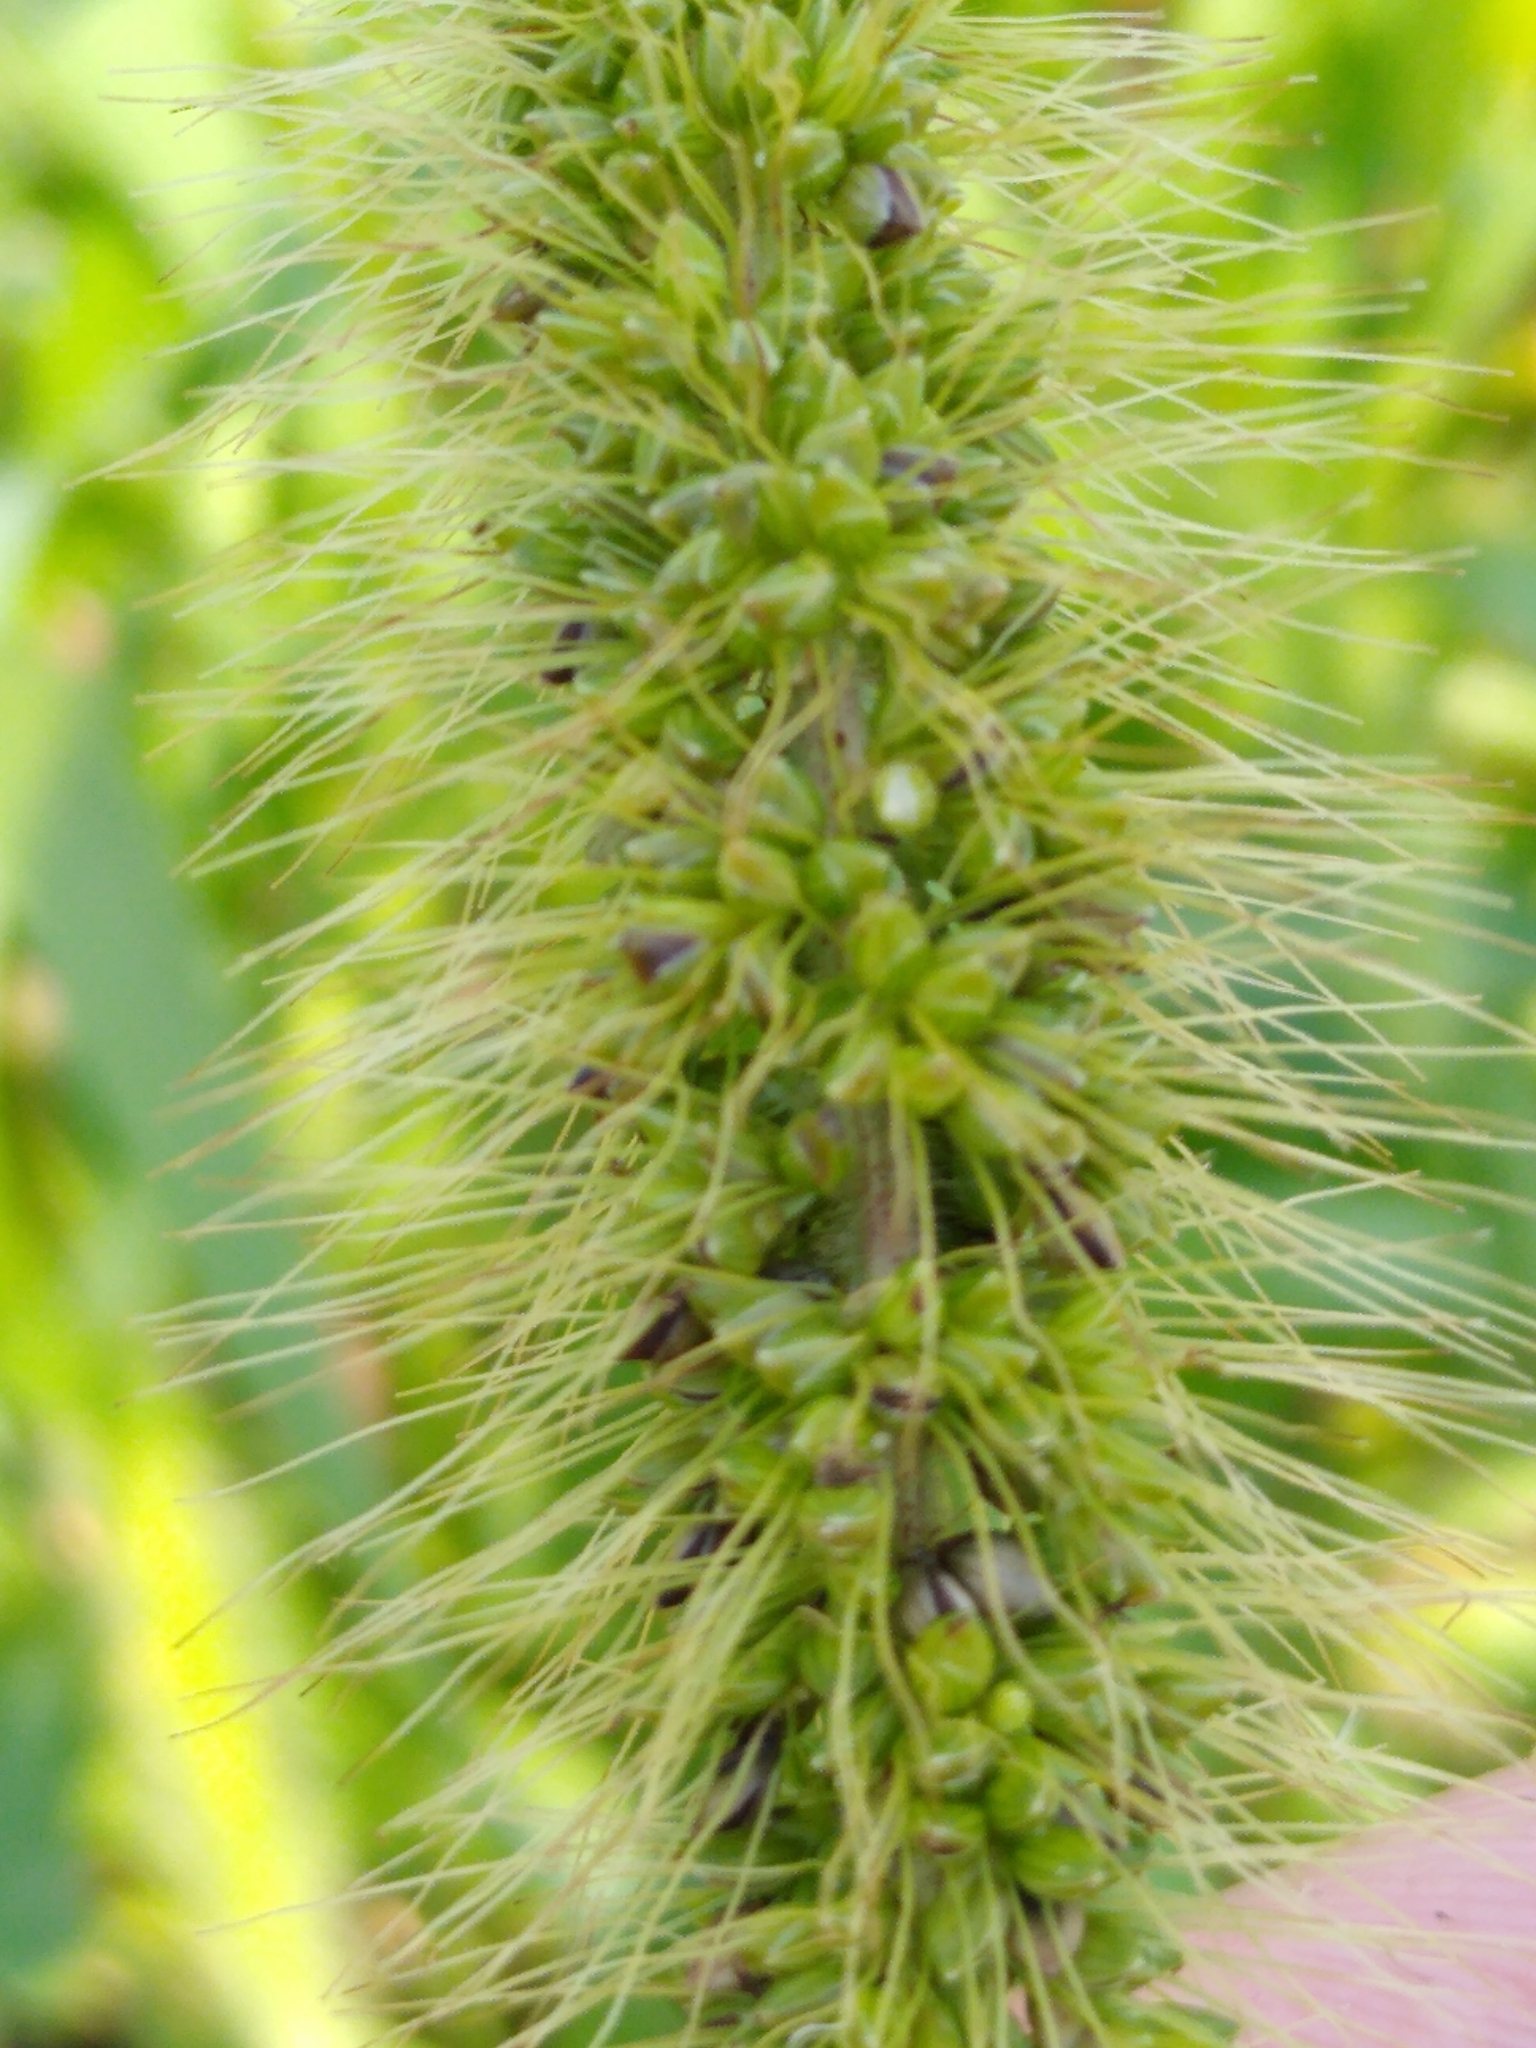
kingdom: Plantae
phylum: Tracheophyta
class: Liliopsida
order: Poales
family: Poaceae
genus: Setaria
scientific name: Setaria faberi
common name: Nodding bristle-grass
